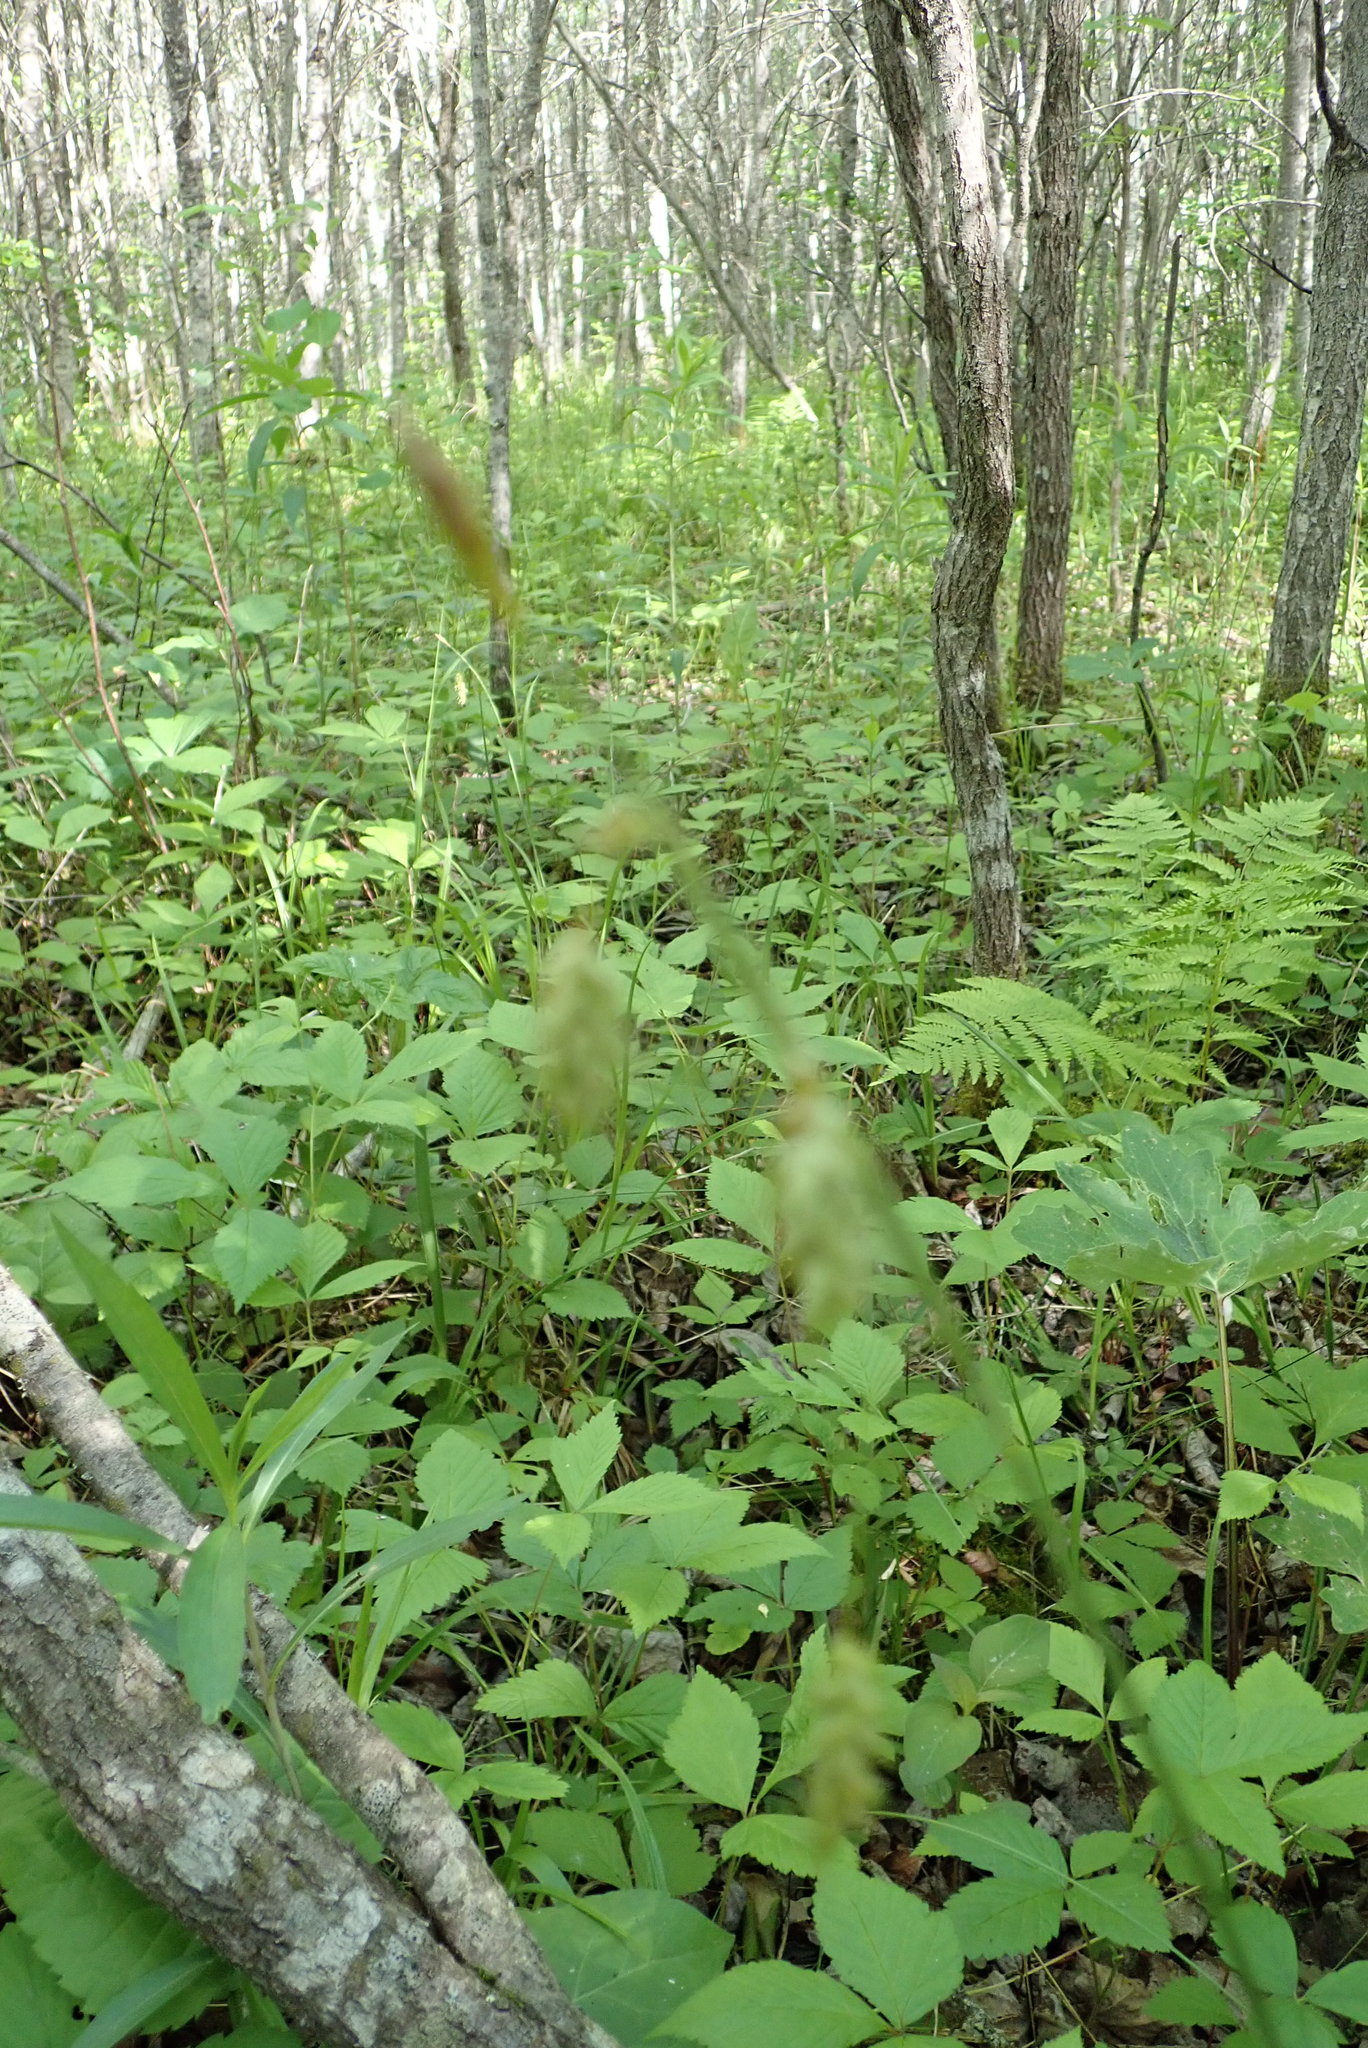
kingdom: Plantae
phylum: Tracheophyta
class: Liliopsida
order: Poales
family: Cyperaceae
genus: Carex
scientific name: Carex castanea
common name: Chestnut sedge
